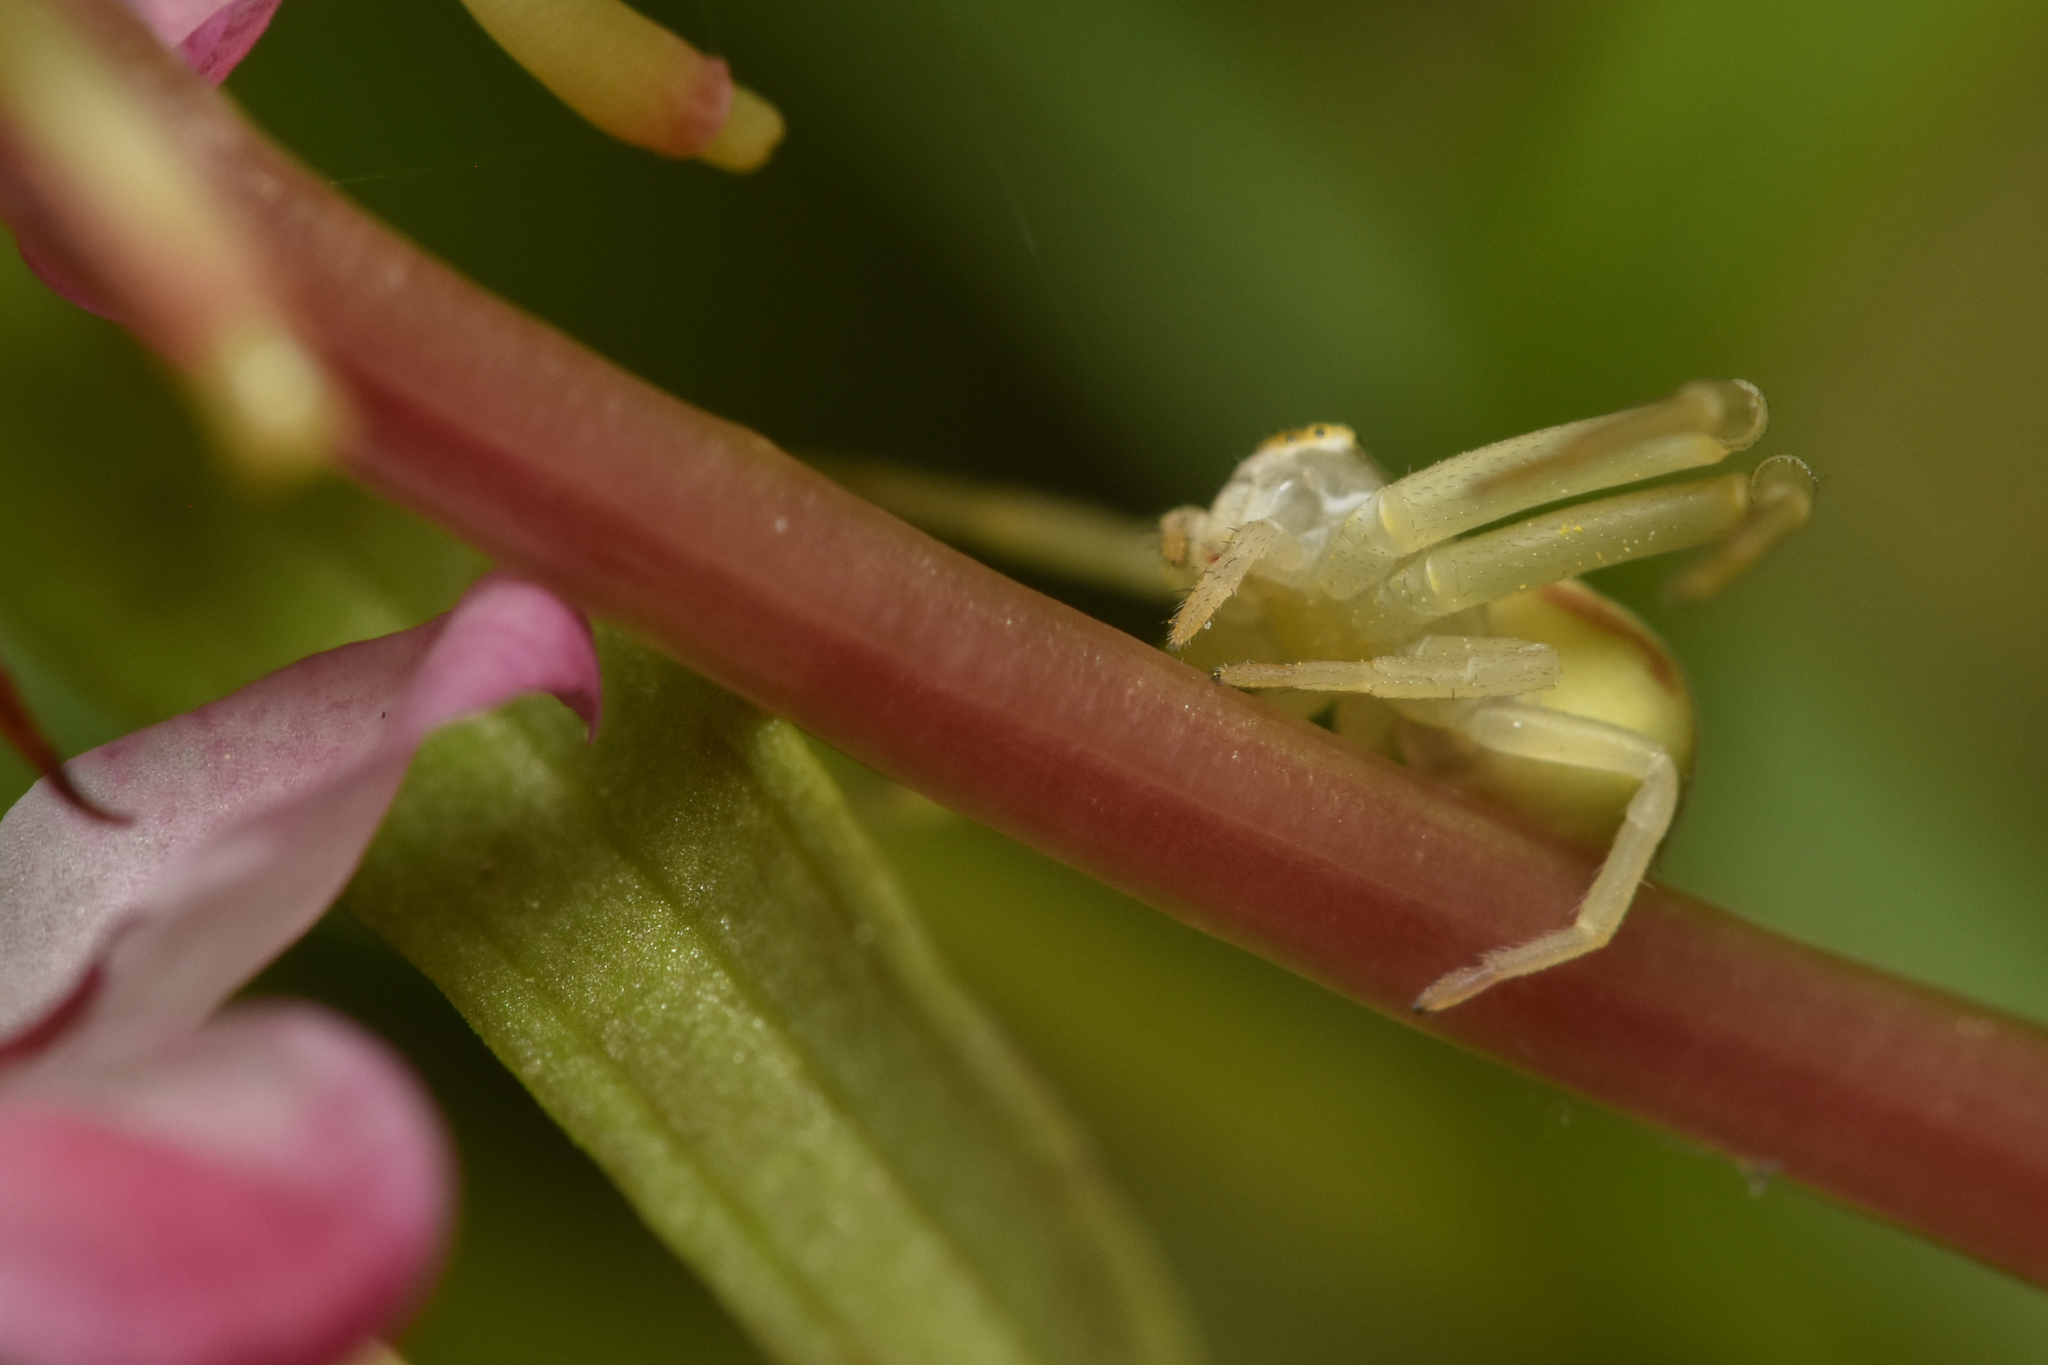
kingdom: Animalia
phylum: Arthropoda
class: Arachnida
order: Araneae
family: Thomisidae
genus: Misumena
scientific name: Misumena vatia
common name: Goldenrod crab spider
